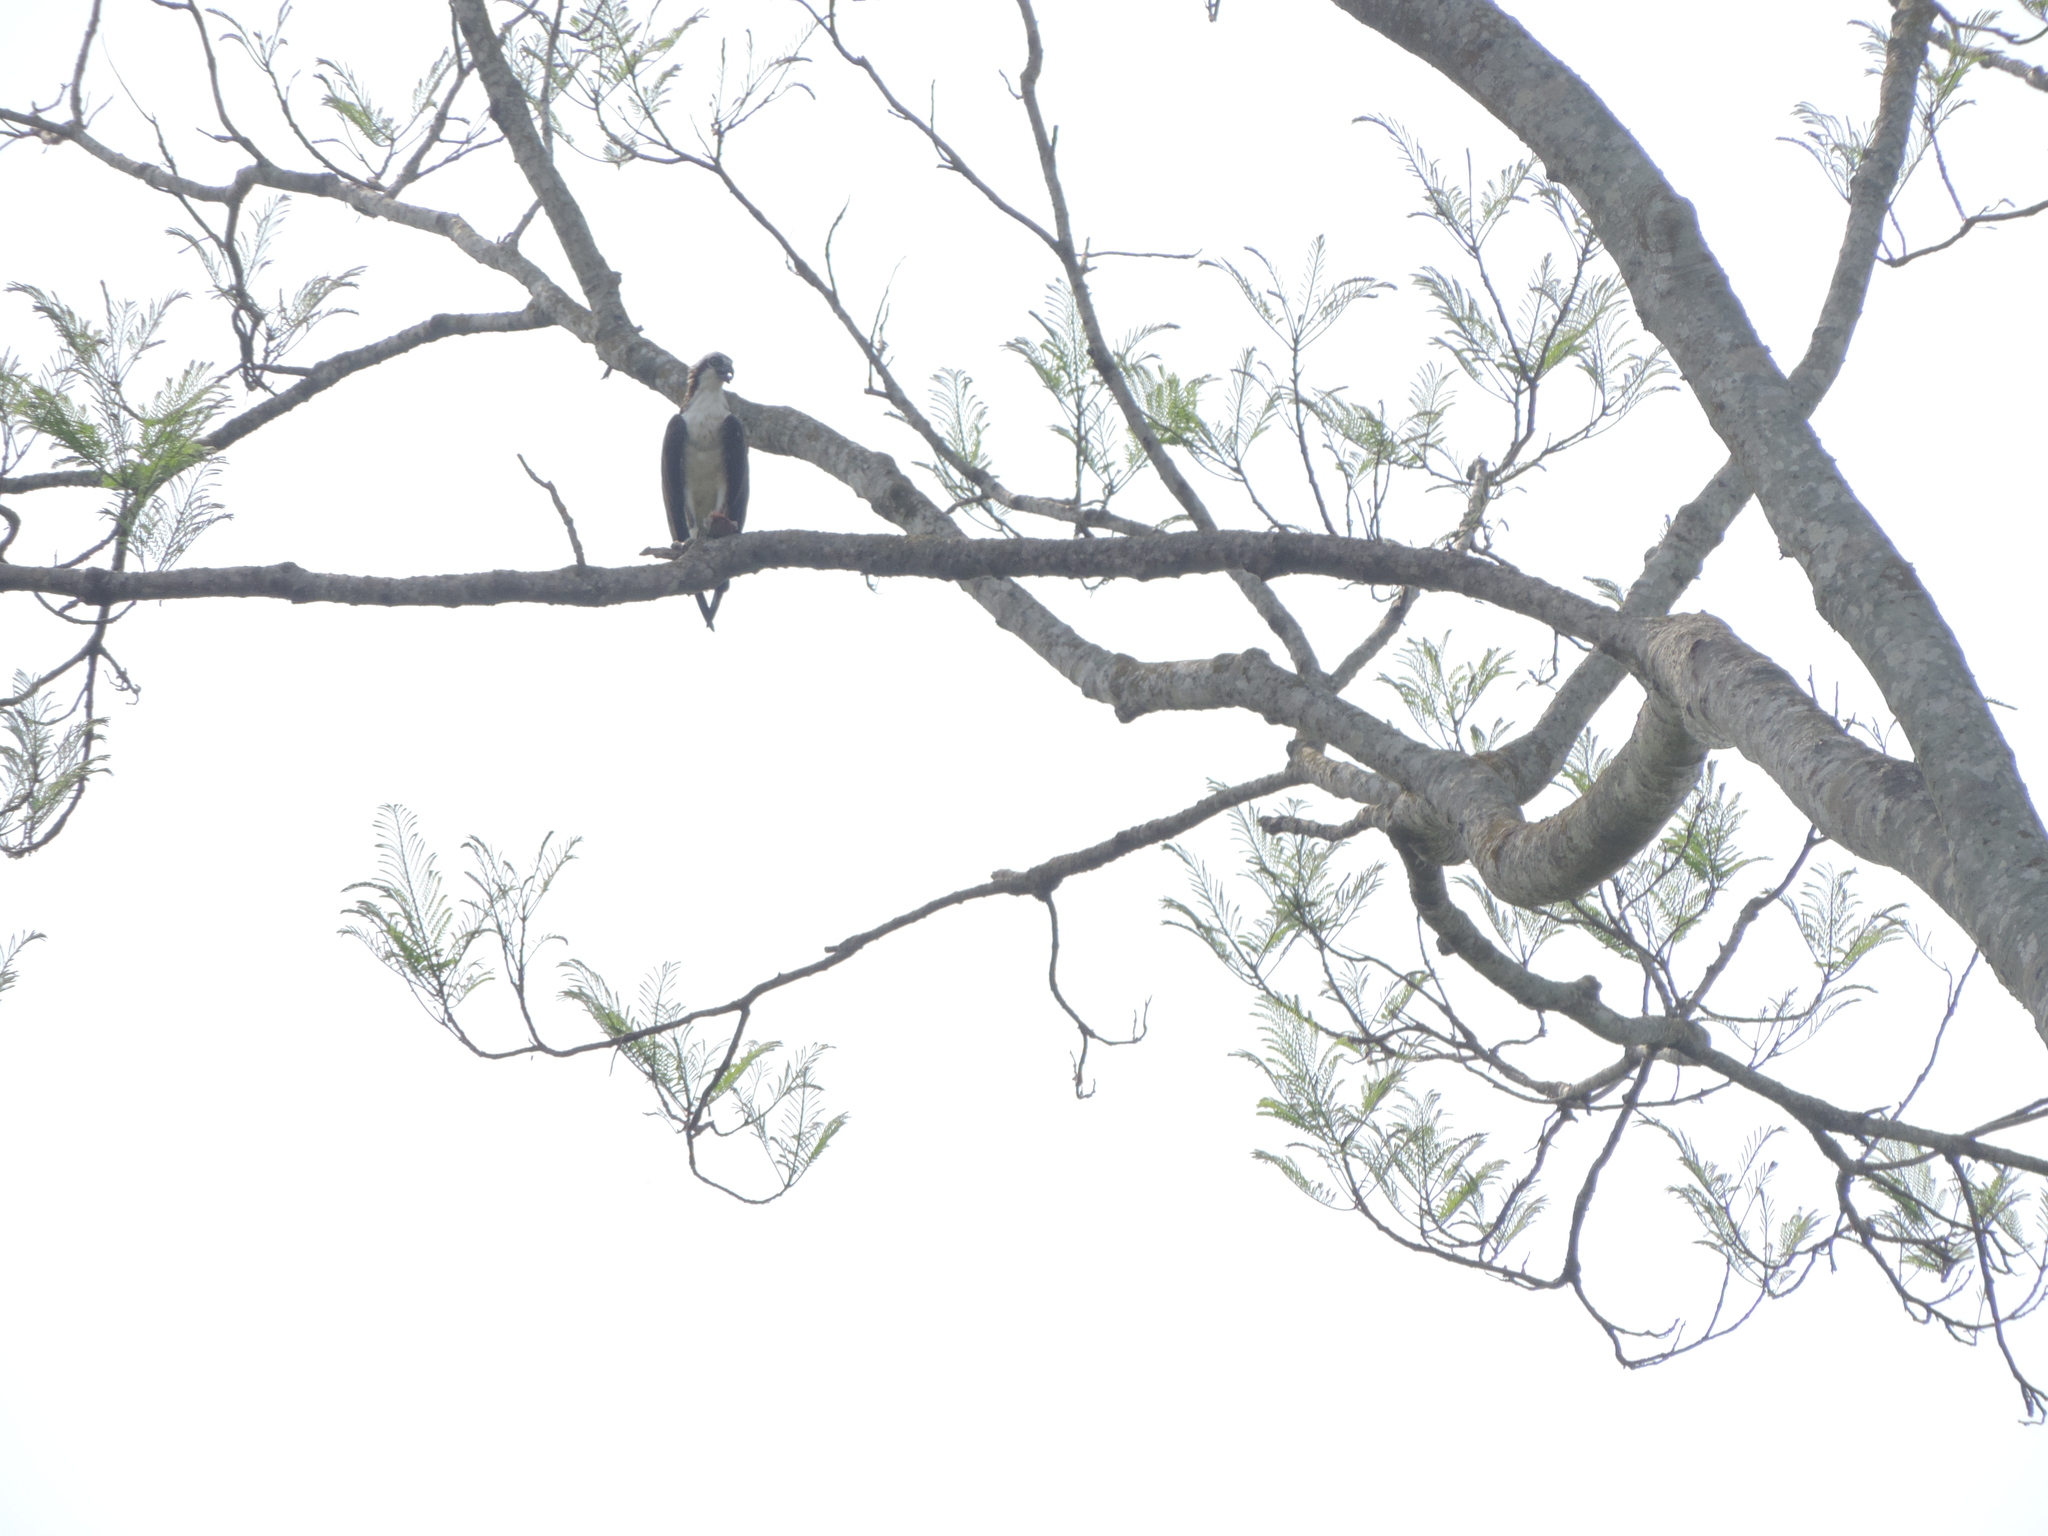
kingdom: Animalia
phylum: Chordata
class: Aves
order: Accipitriformes
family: Pandionidae
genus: Pandion
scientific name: Pandion haliaetus
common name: Osprey
